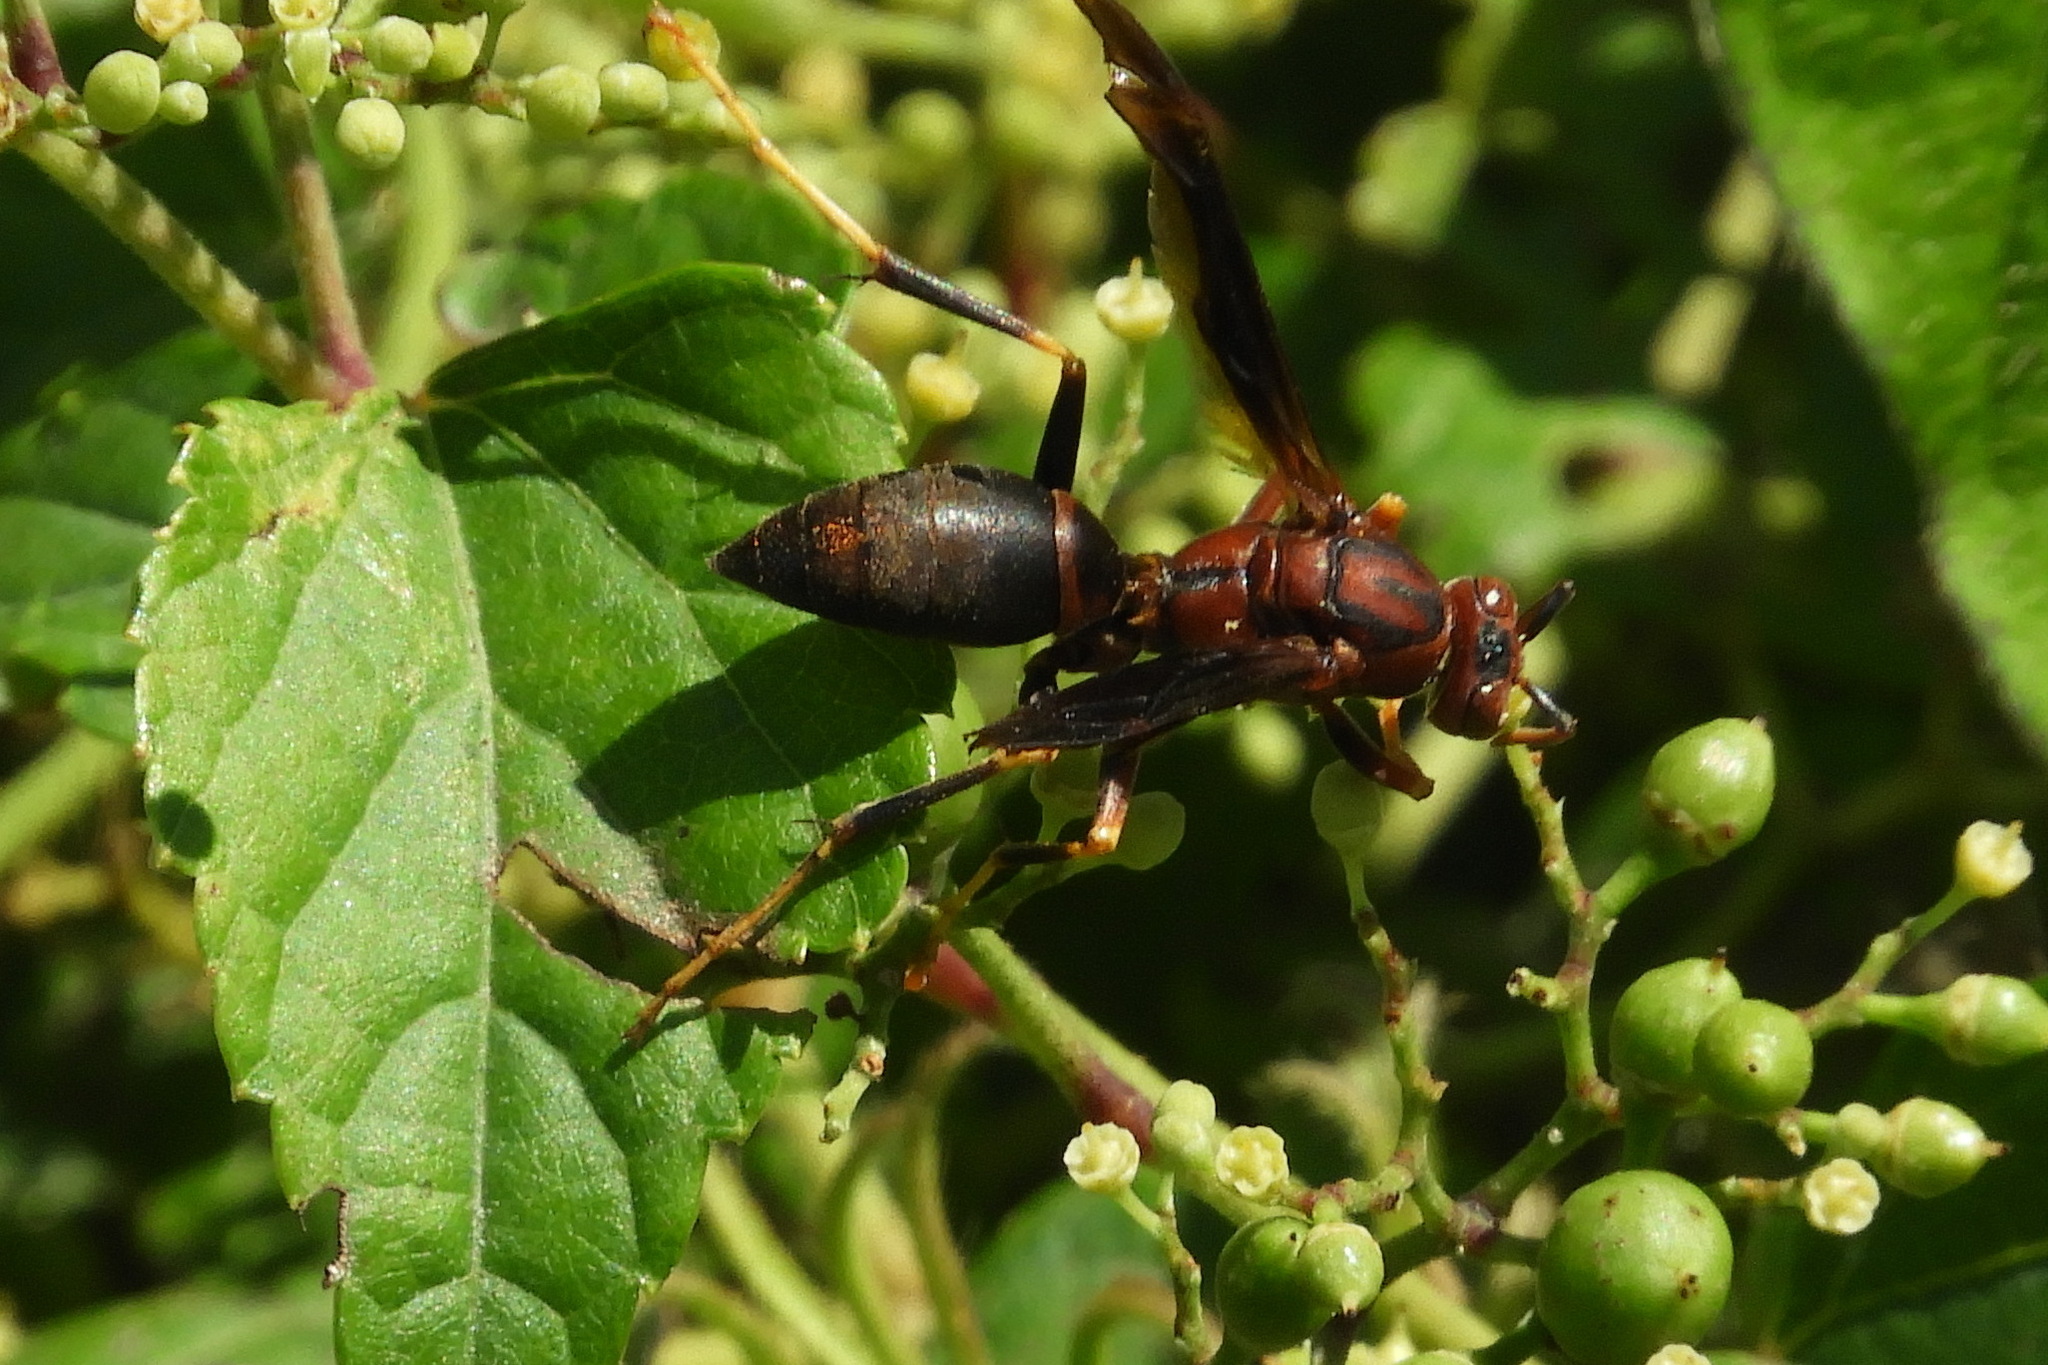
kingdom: Animalia
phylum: Arthropoda
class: Insecta
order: Hymenoptera
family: Eumenidae
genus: Polistes
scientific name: Polistes metricus
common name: Metric paper wasp
